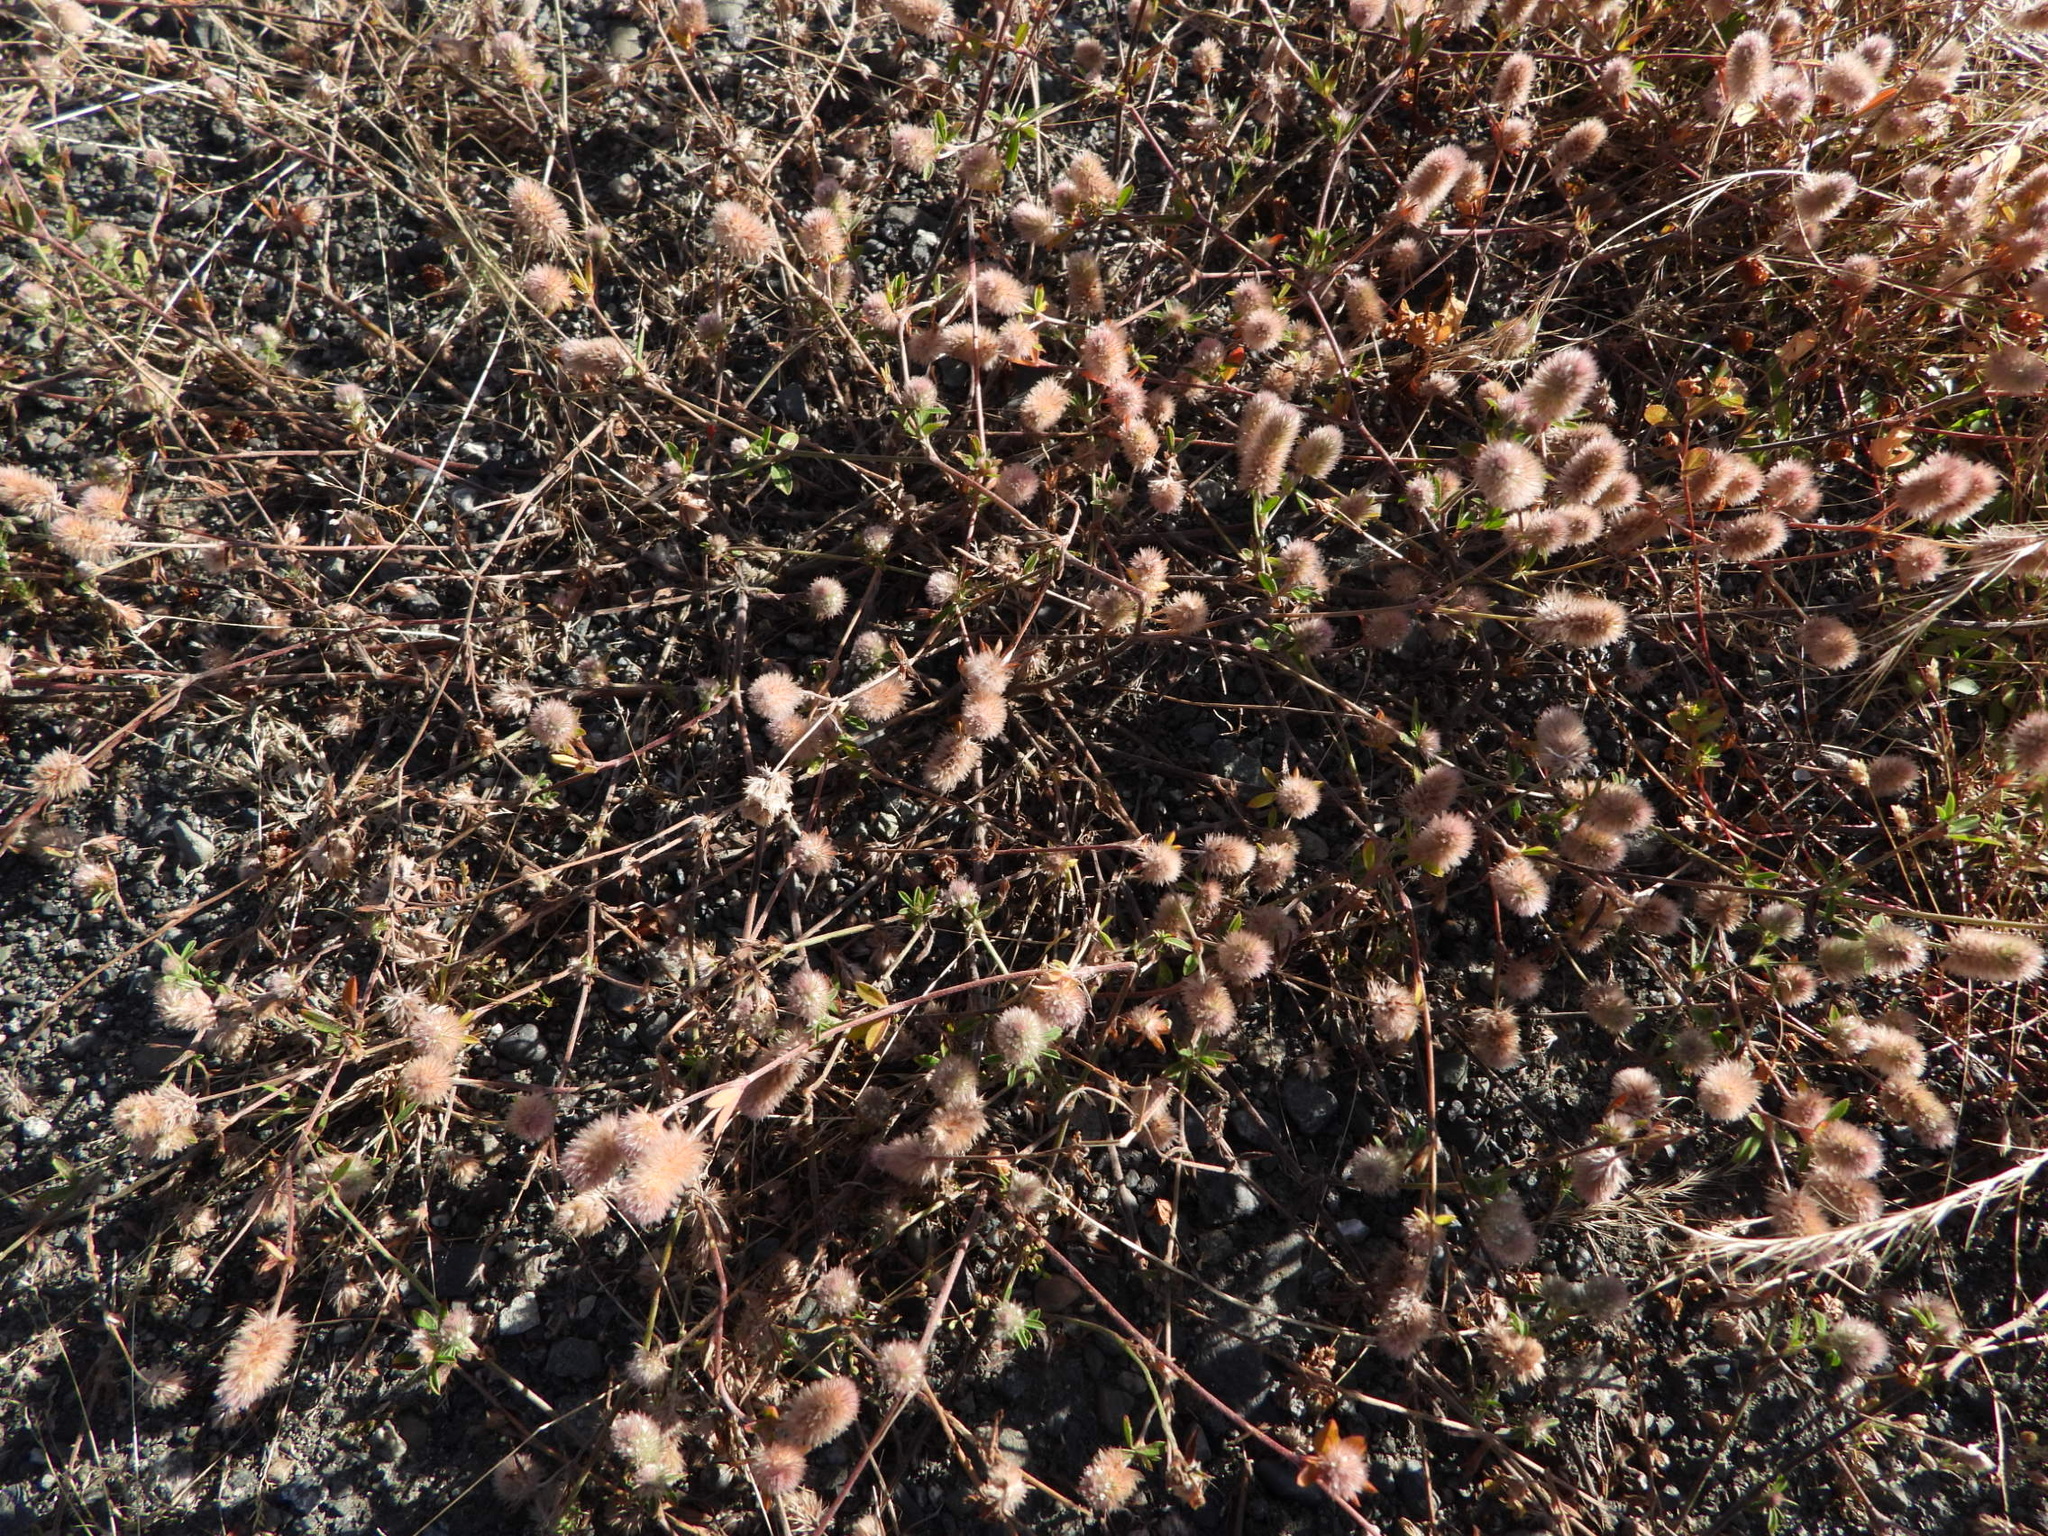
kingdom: Plantae
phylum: Tracheophyta
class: Magnoliopsida
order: Fabales
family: Fabaceae
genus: Trifolium
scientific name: Trifolium arvense
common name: Hare's-foot clover
